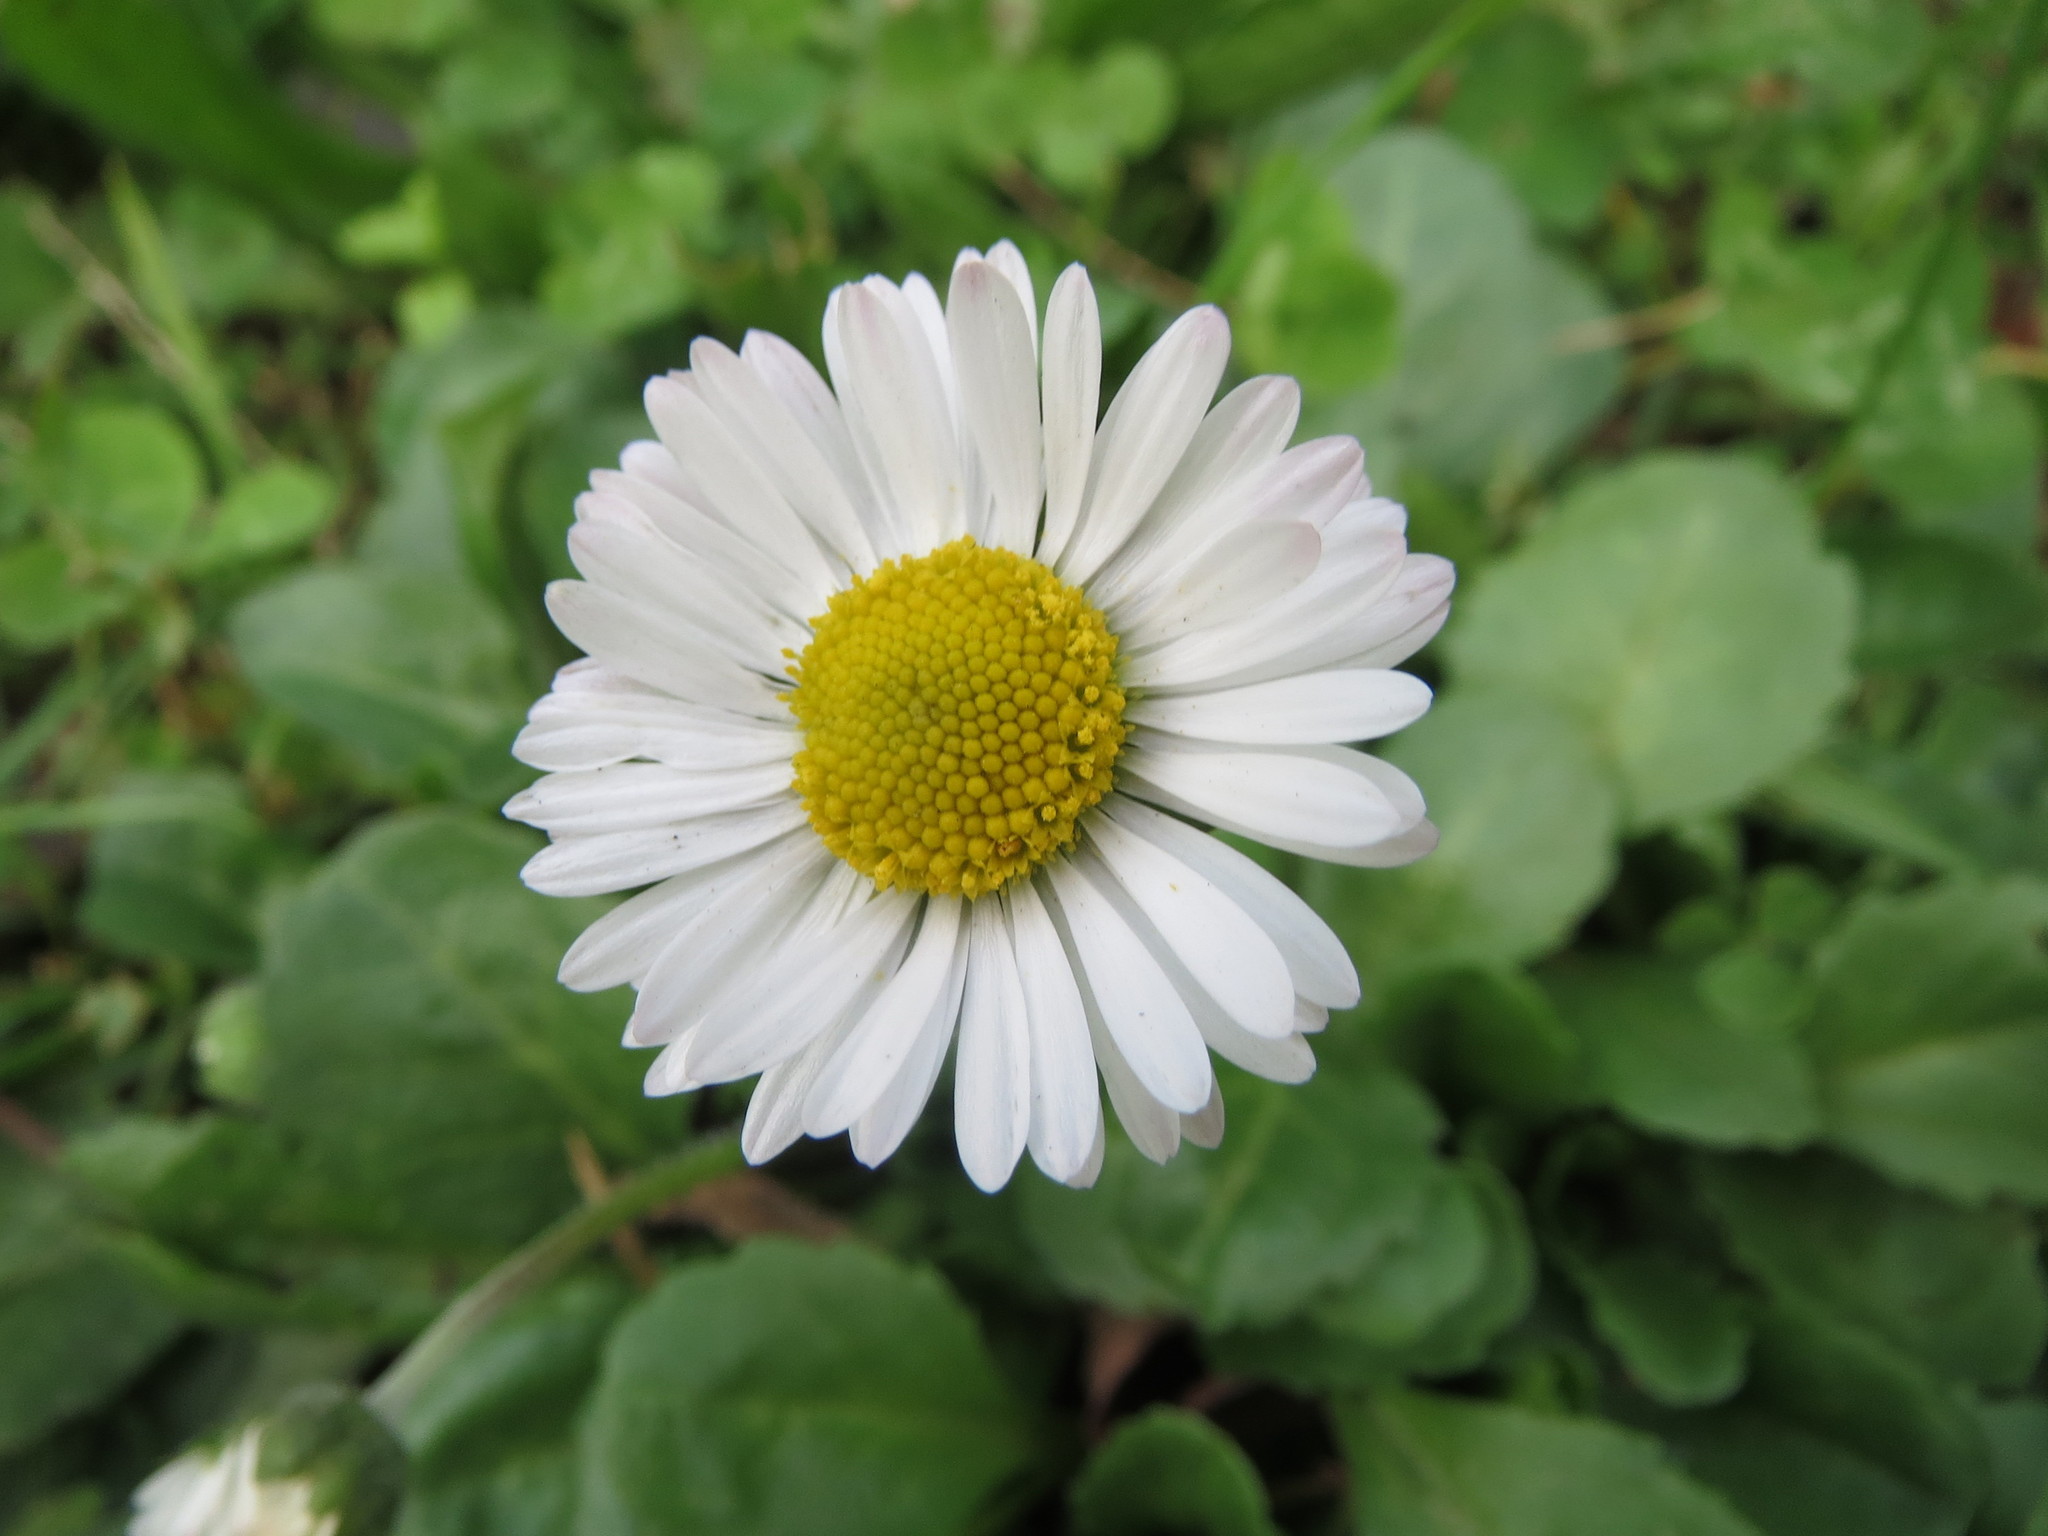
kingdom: Plantae
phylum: Tracheophyta
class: Magnoliopsida
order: Asterales
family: Asteraceae
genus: Bellis
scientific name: Bellis perennis
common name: Lawndaisy
